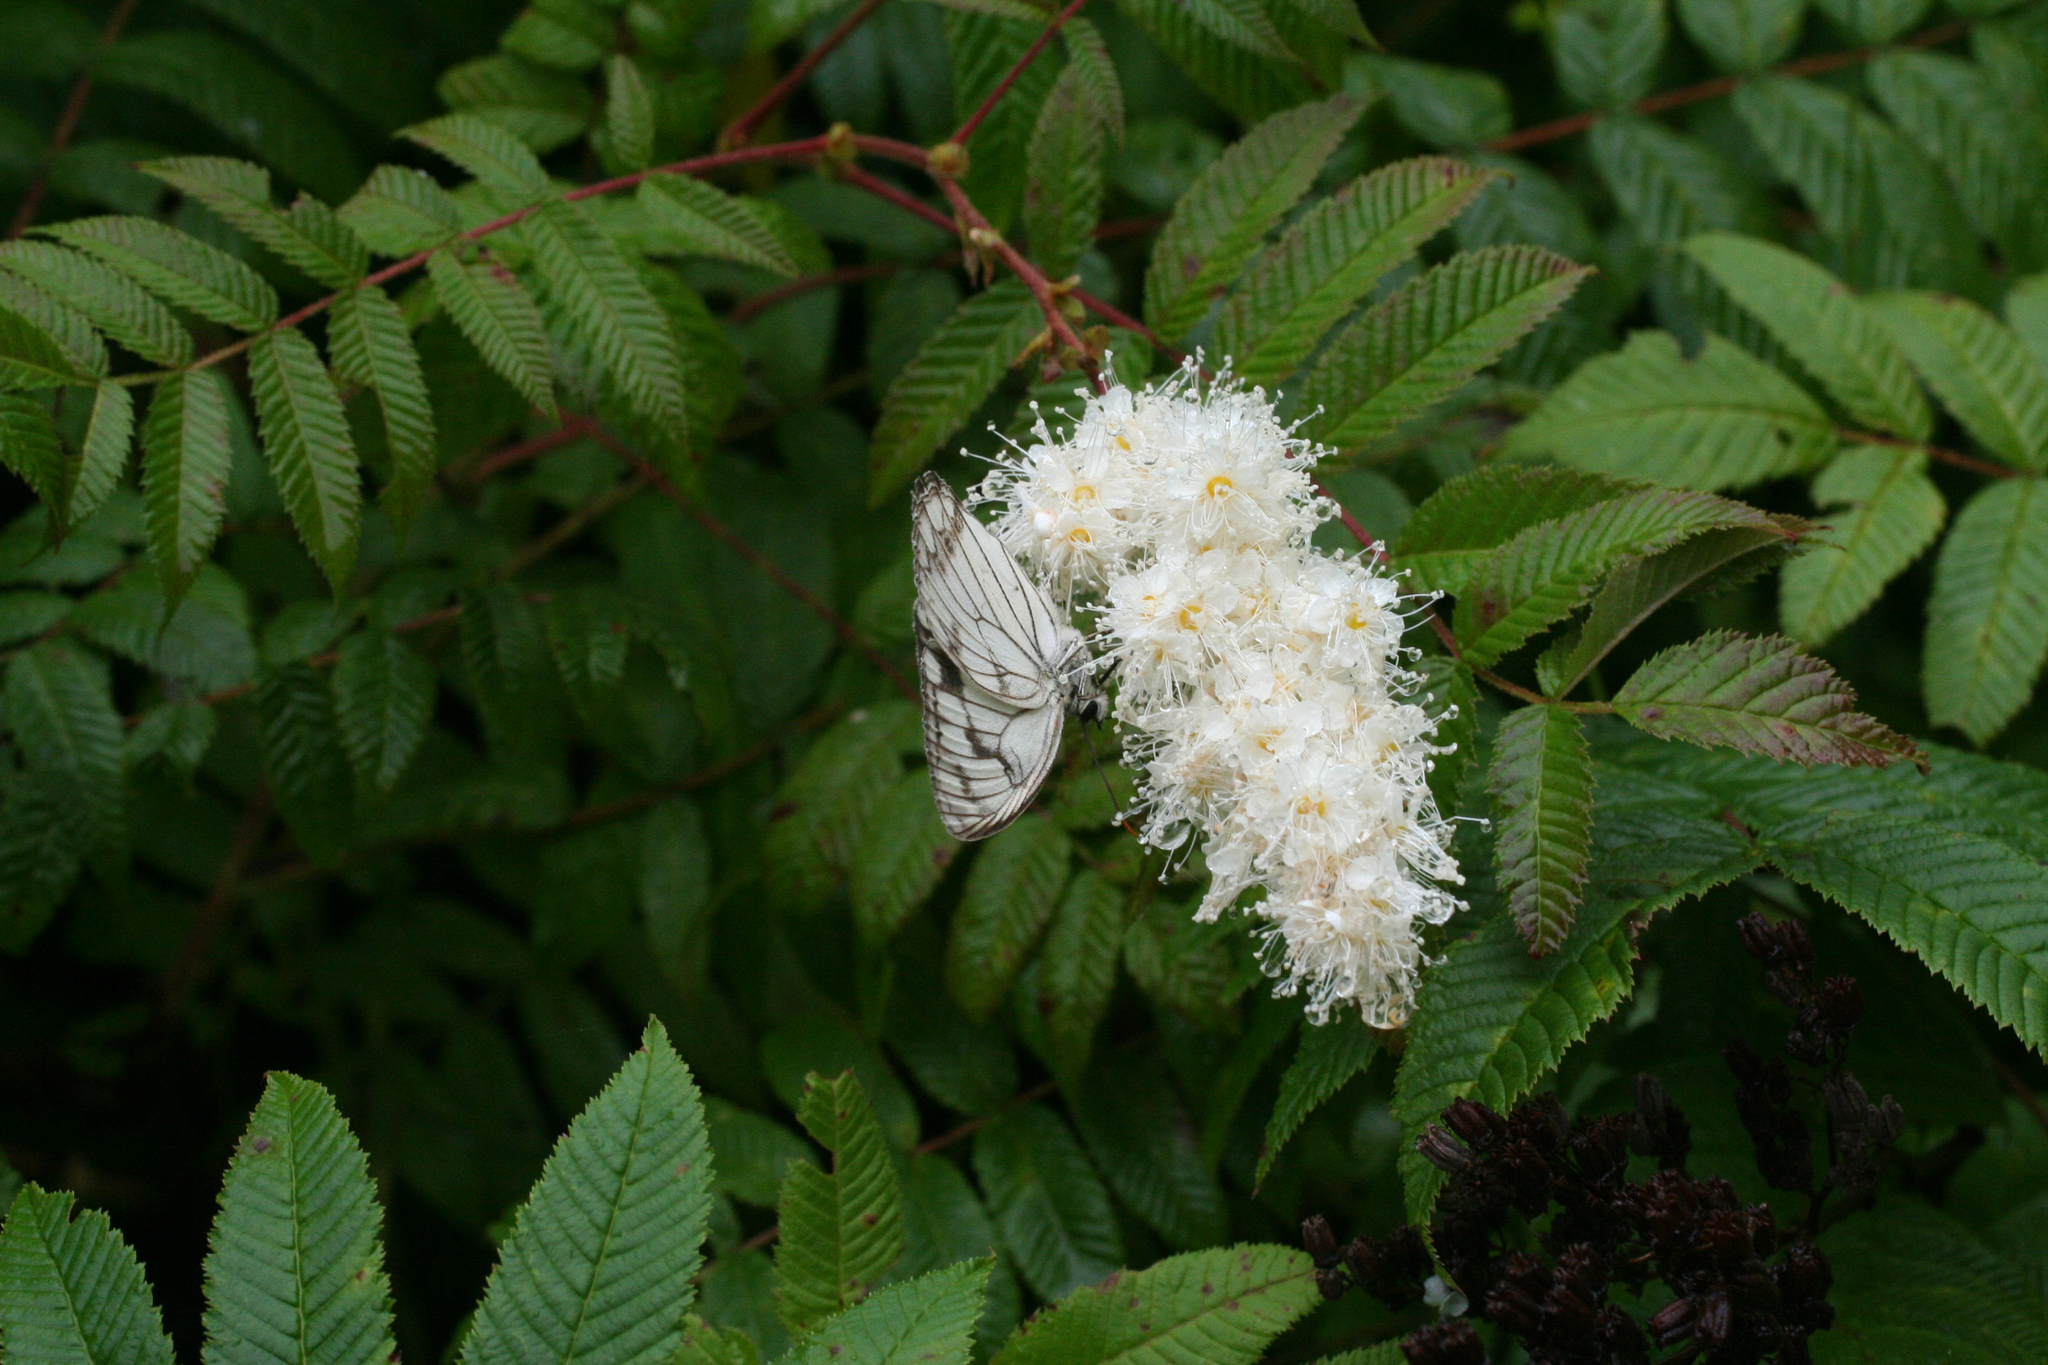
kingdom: Plantae
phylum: Tracheophyta
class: Magnoliopsida
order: Rosales
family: Rosaceae
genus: Sorbaria
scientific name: Sorbaria sorbifolia
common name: False spiraea
